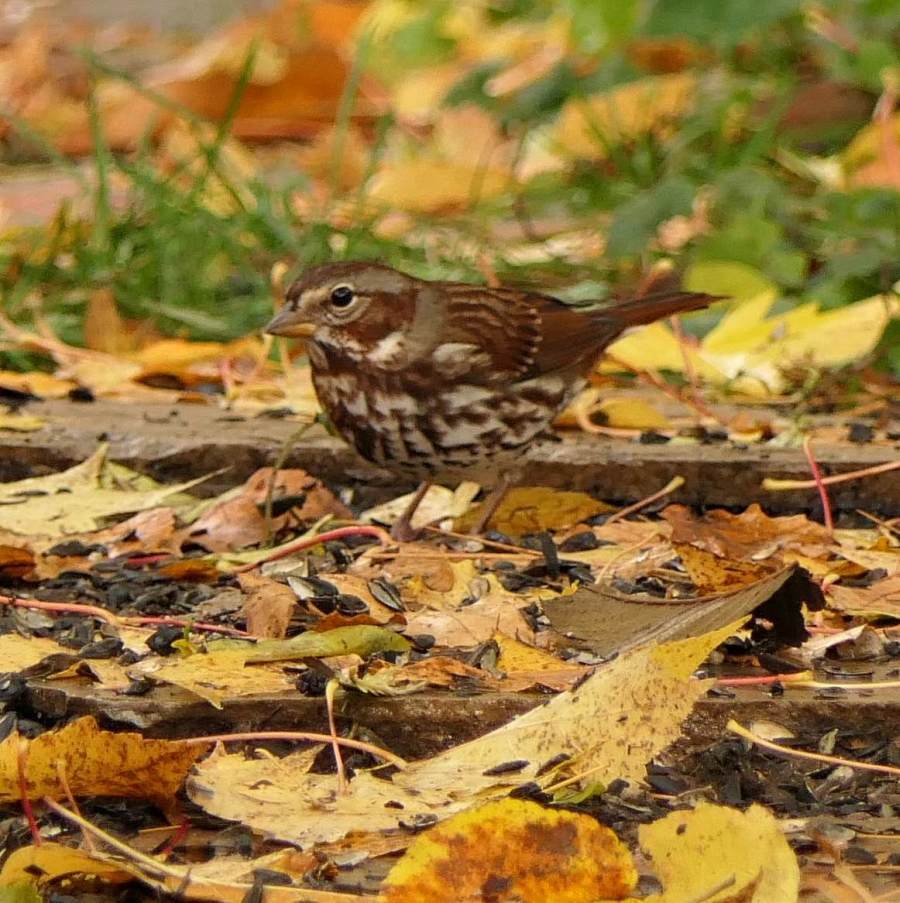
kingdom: Animalia
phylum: Chordata
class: Aves
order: Passeriformes
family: Passerellidae
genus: Passerella
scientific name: Passerella iliaca
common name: Fox sparrow
